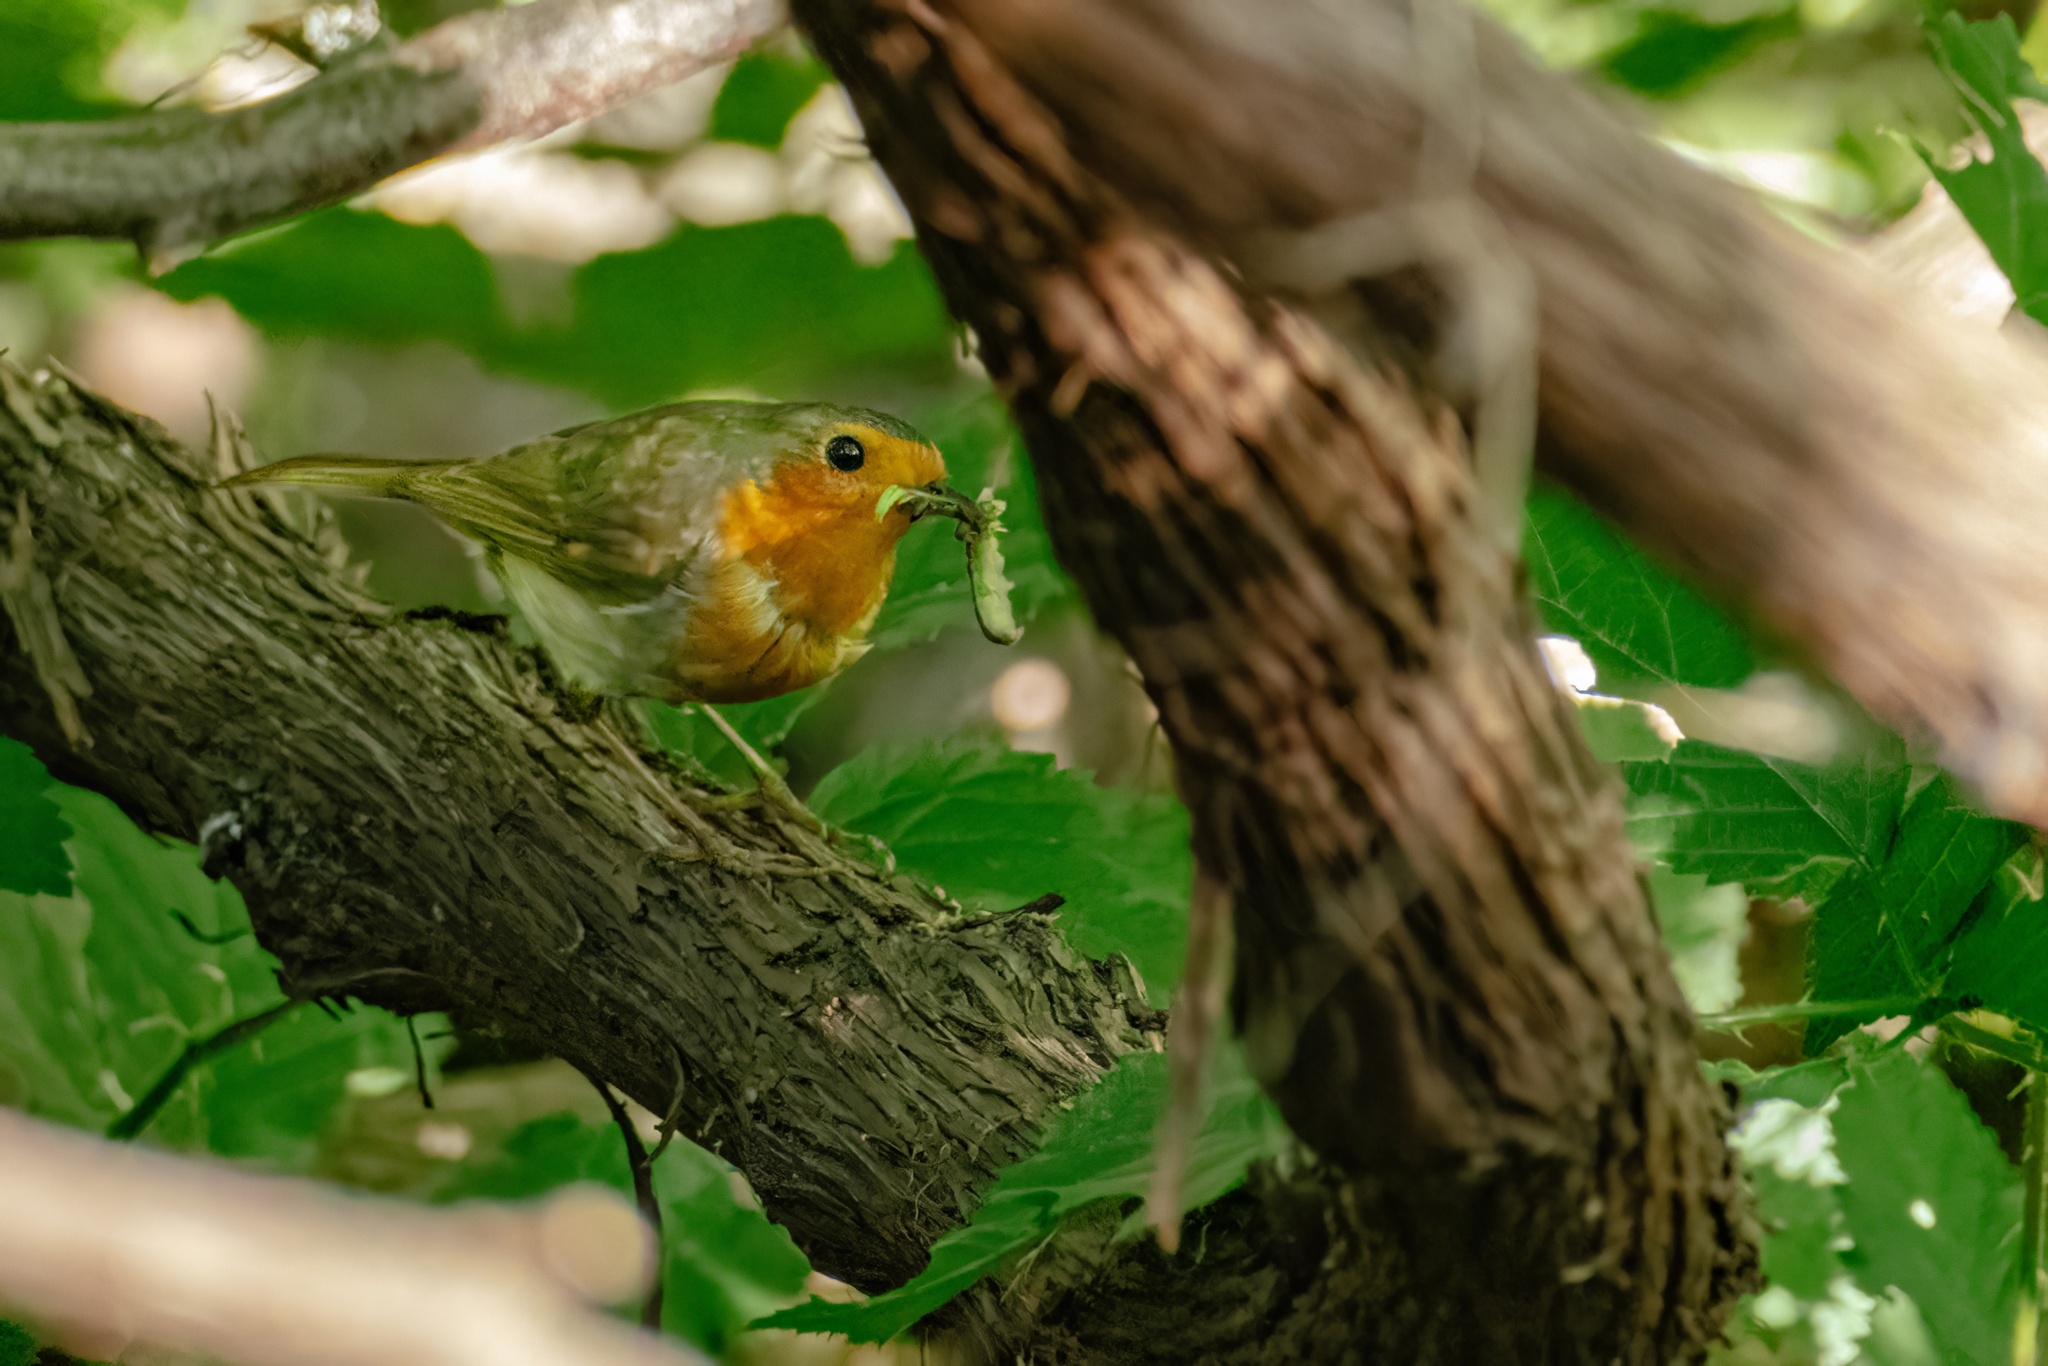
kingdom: Animalia
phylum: Chordata
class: Aves
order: Passeriformes
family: Muscicapidae
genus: Erithacus
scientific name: Erithacus rubecula
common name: European robin
